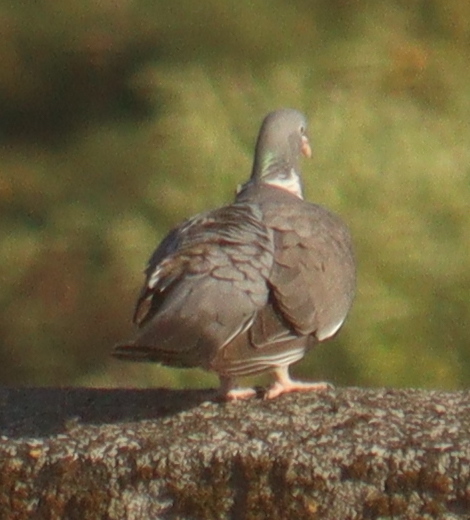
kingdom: Animalia
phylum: Chordata
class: Aves
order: Columbiformes
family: Columbidae
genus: Columba
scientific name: Columba palumbus
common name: Common wood pigeon
